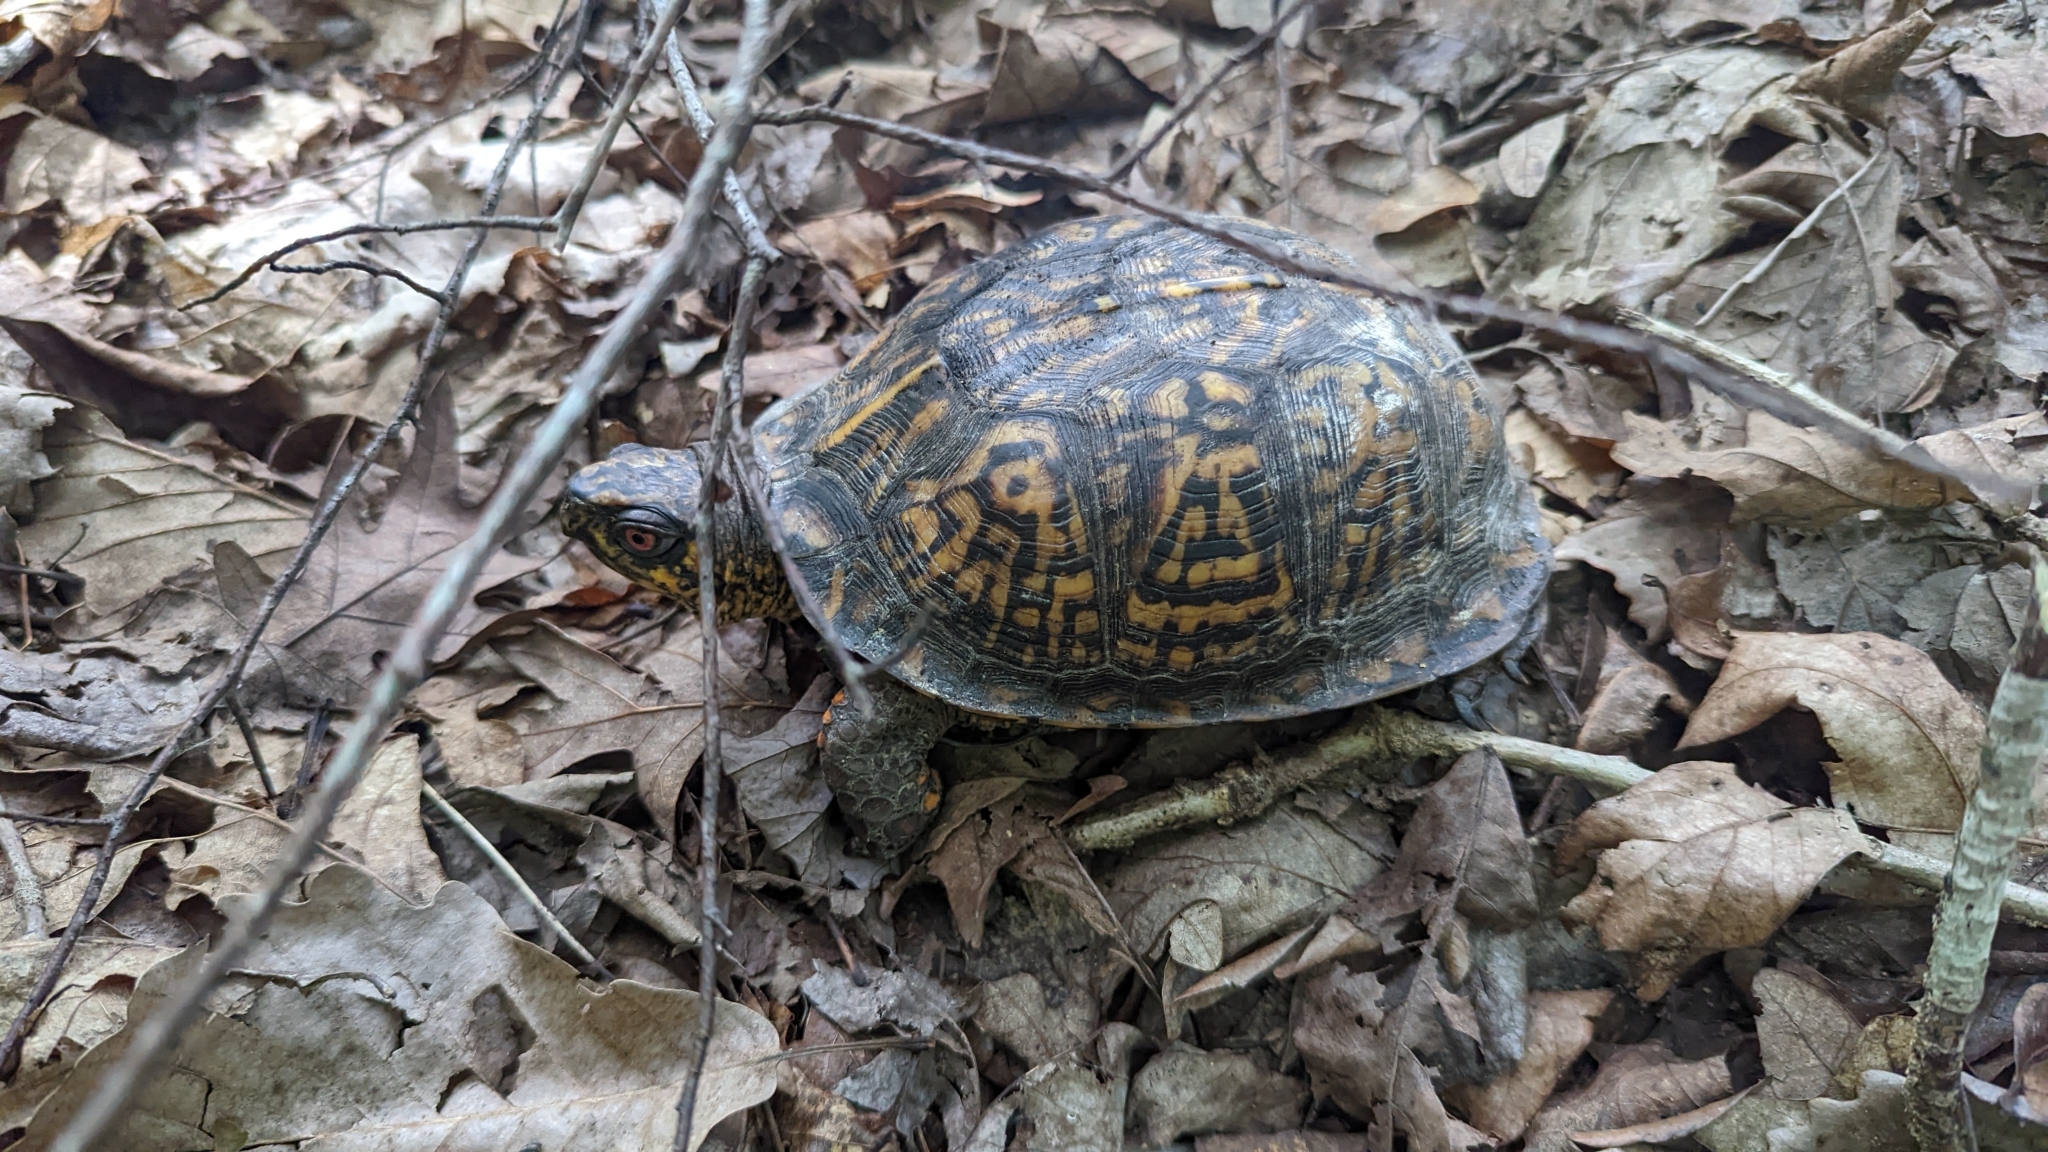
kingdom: Animalia
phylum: Chordata
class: Testudines
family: Emydidae
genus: Terrapene
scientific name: Terrapene carolina
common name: Common box turtle
